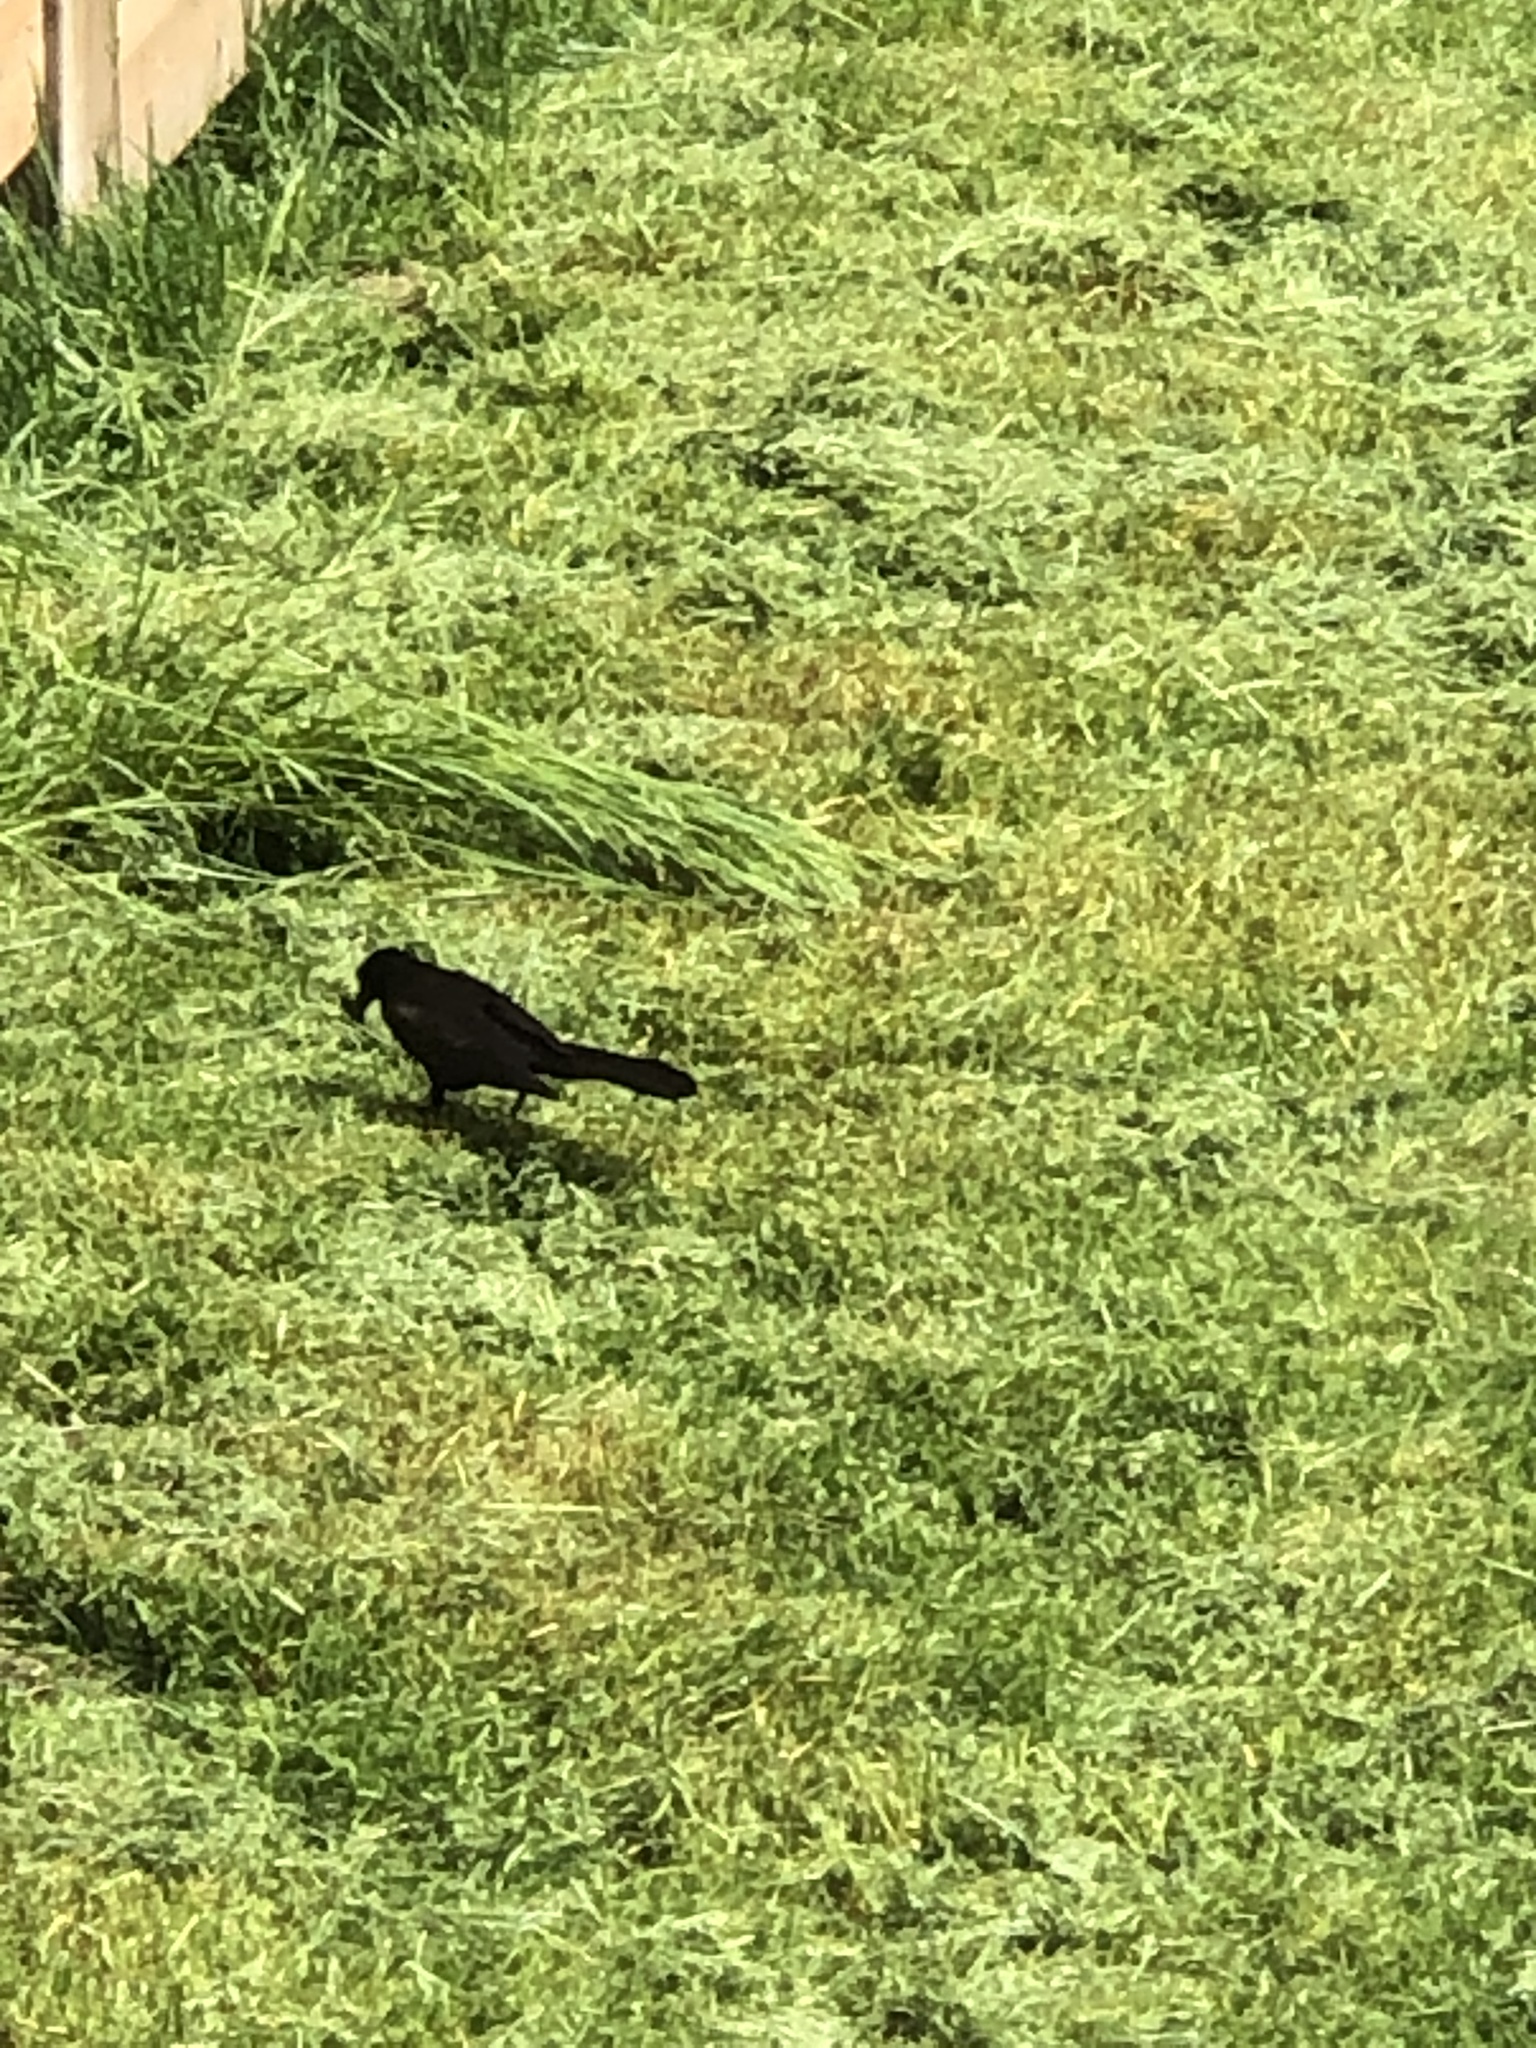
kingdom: Animalia
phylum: Chordata
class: Aves
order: Passeriformes
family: Icteridae
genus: Quiscalus
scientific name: Quiscalus quiscula
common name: Common grackle
